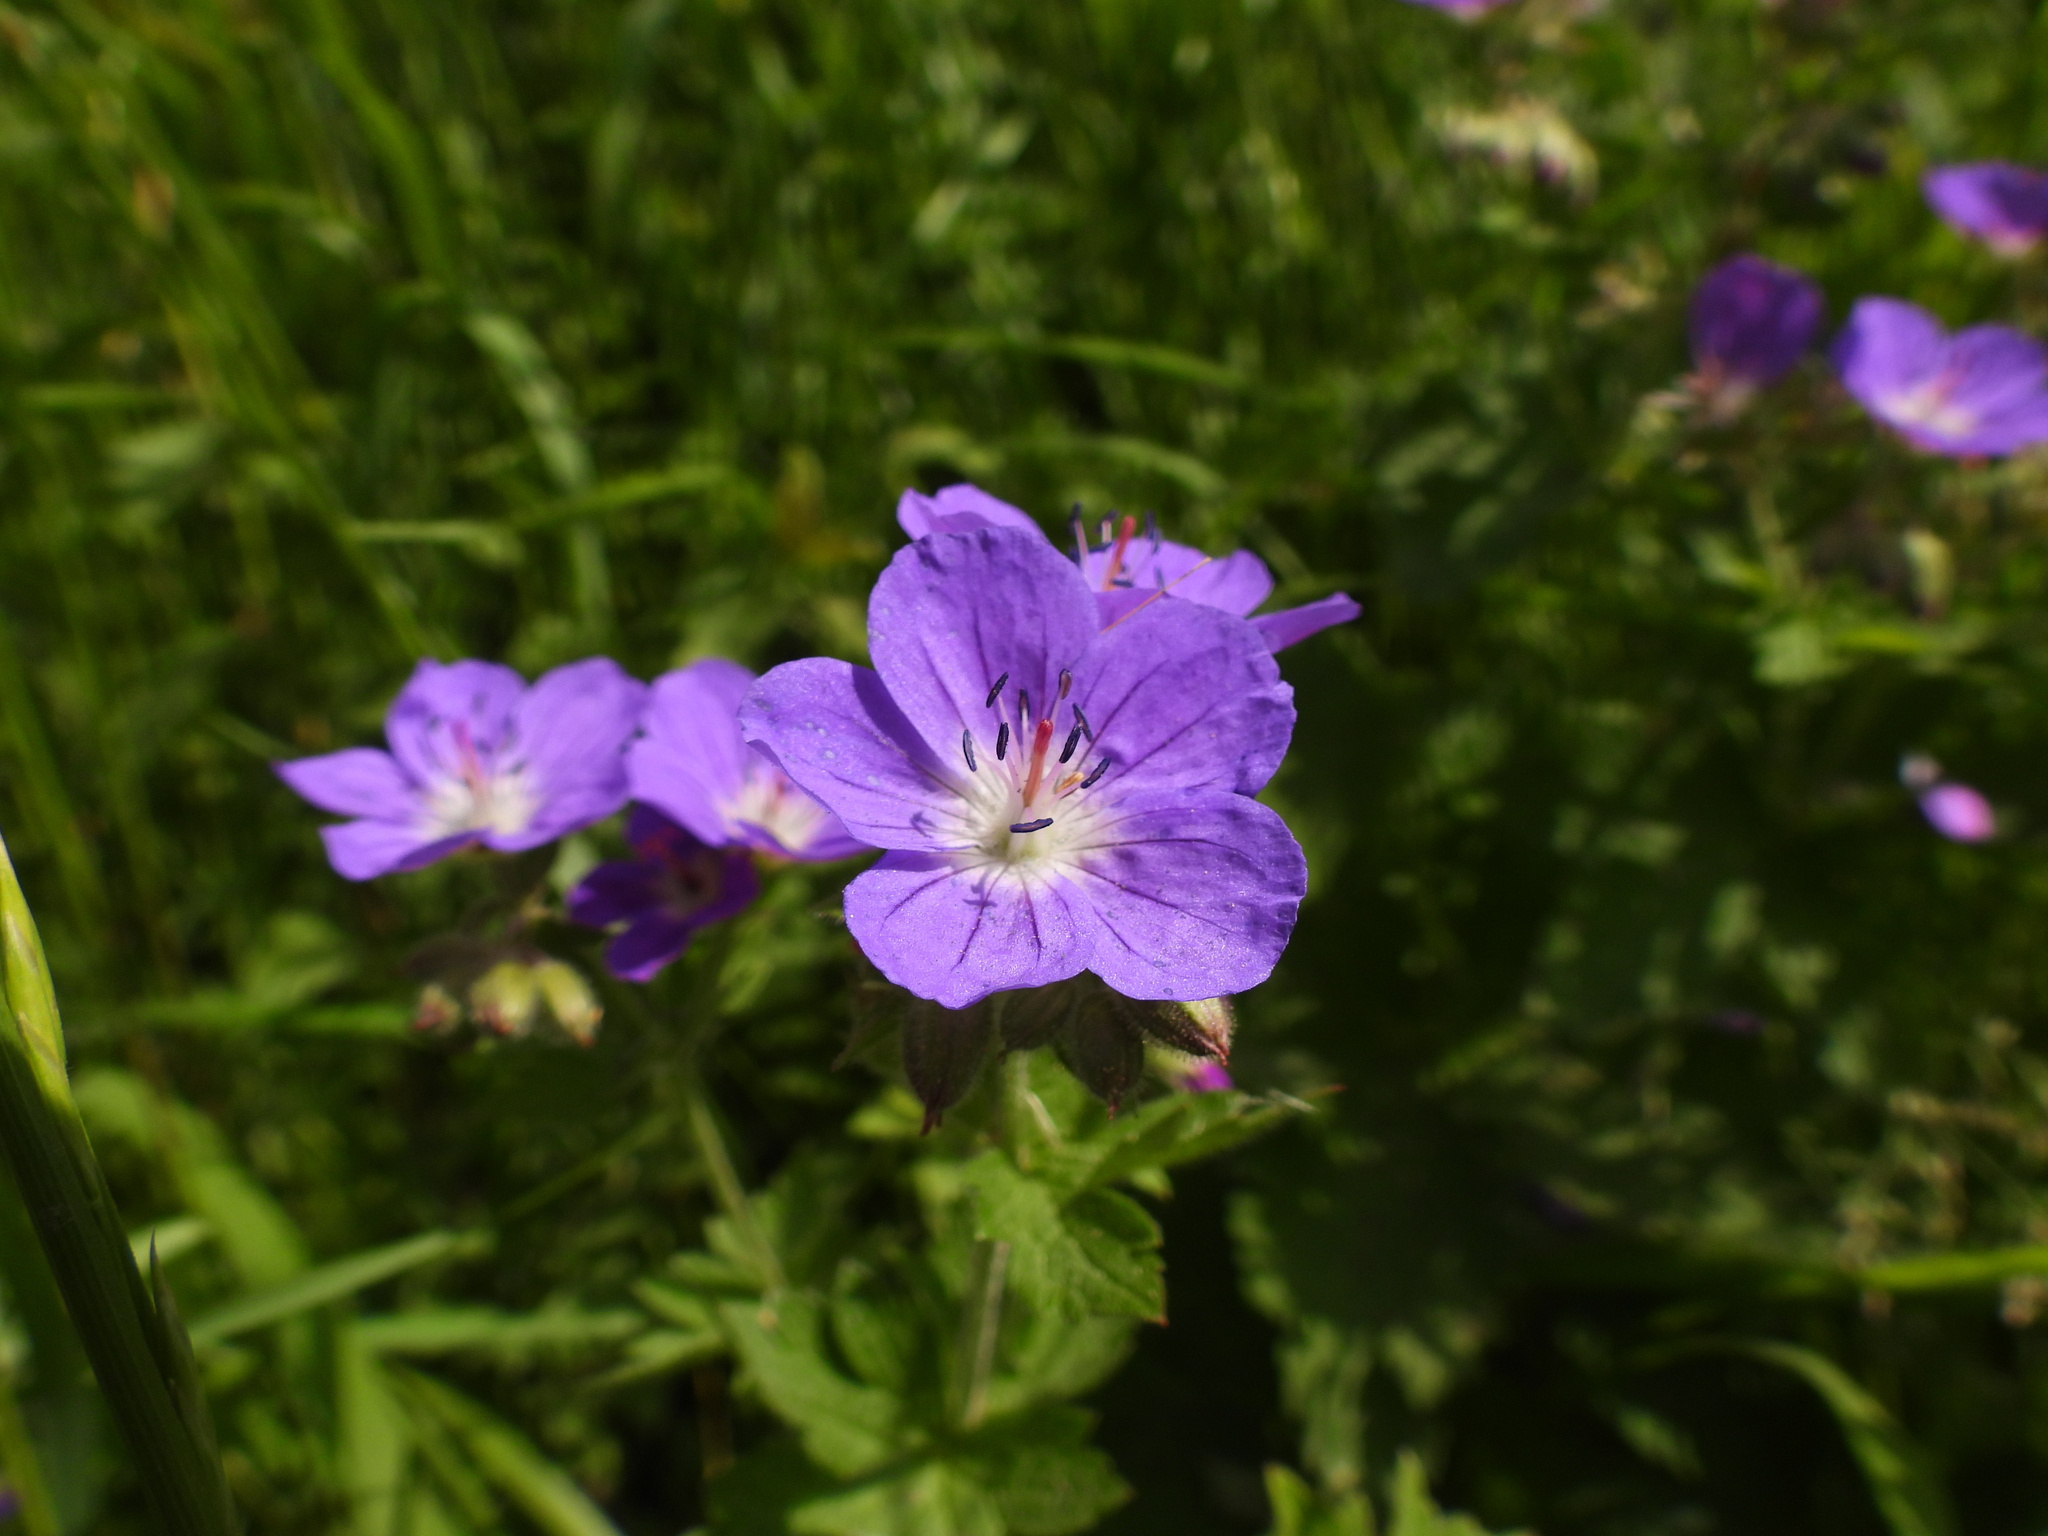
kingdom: Plantae
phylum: Tracheophyta
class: Magnoliopsida
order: Geraniales
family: Geraniaceae
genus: Geranium
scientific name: Geranium sylvaticum
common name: Wood crane's-bill
